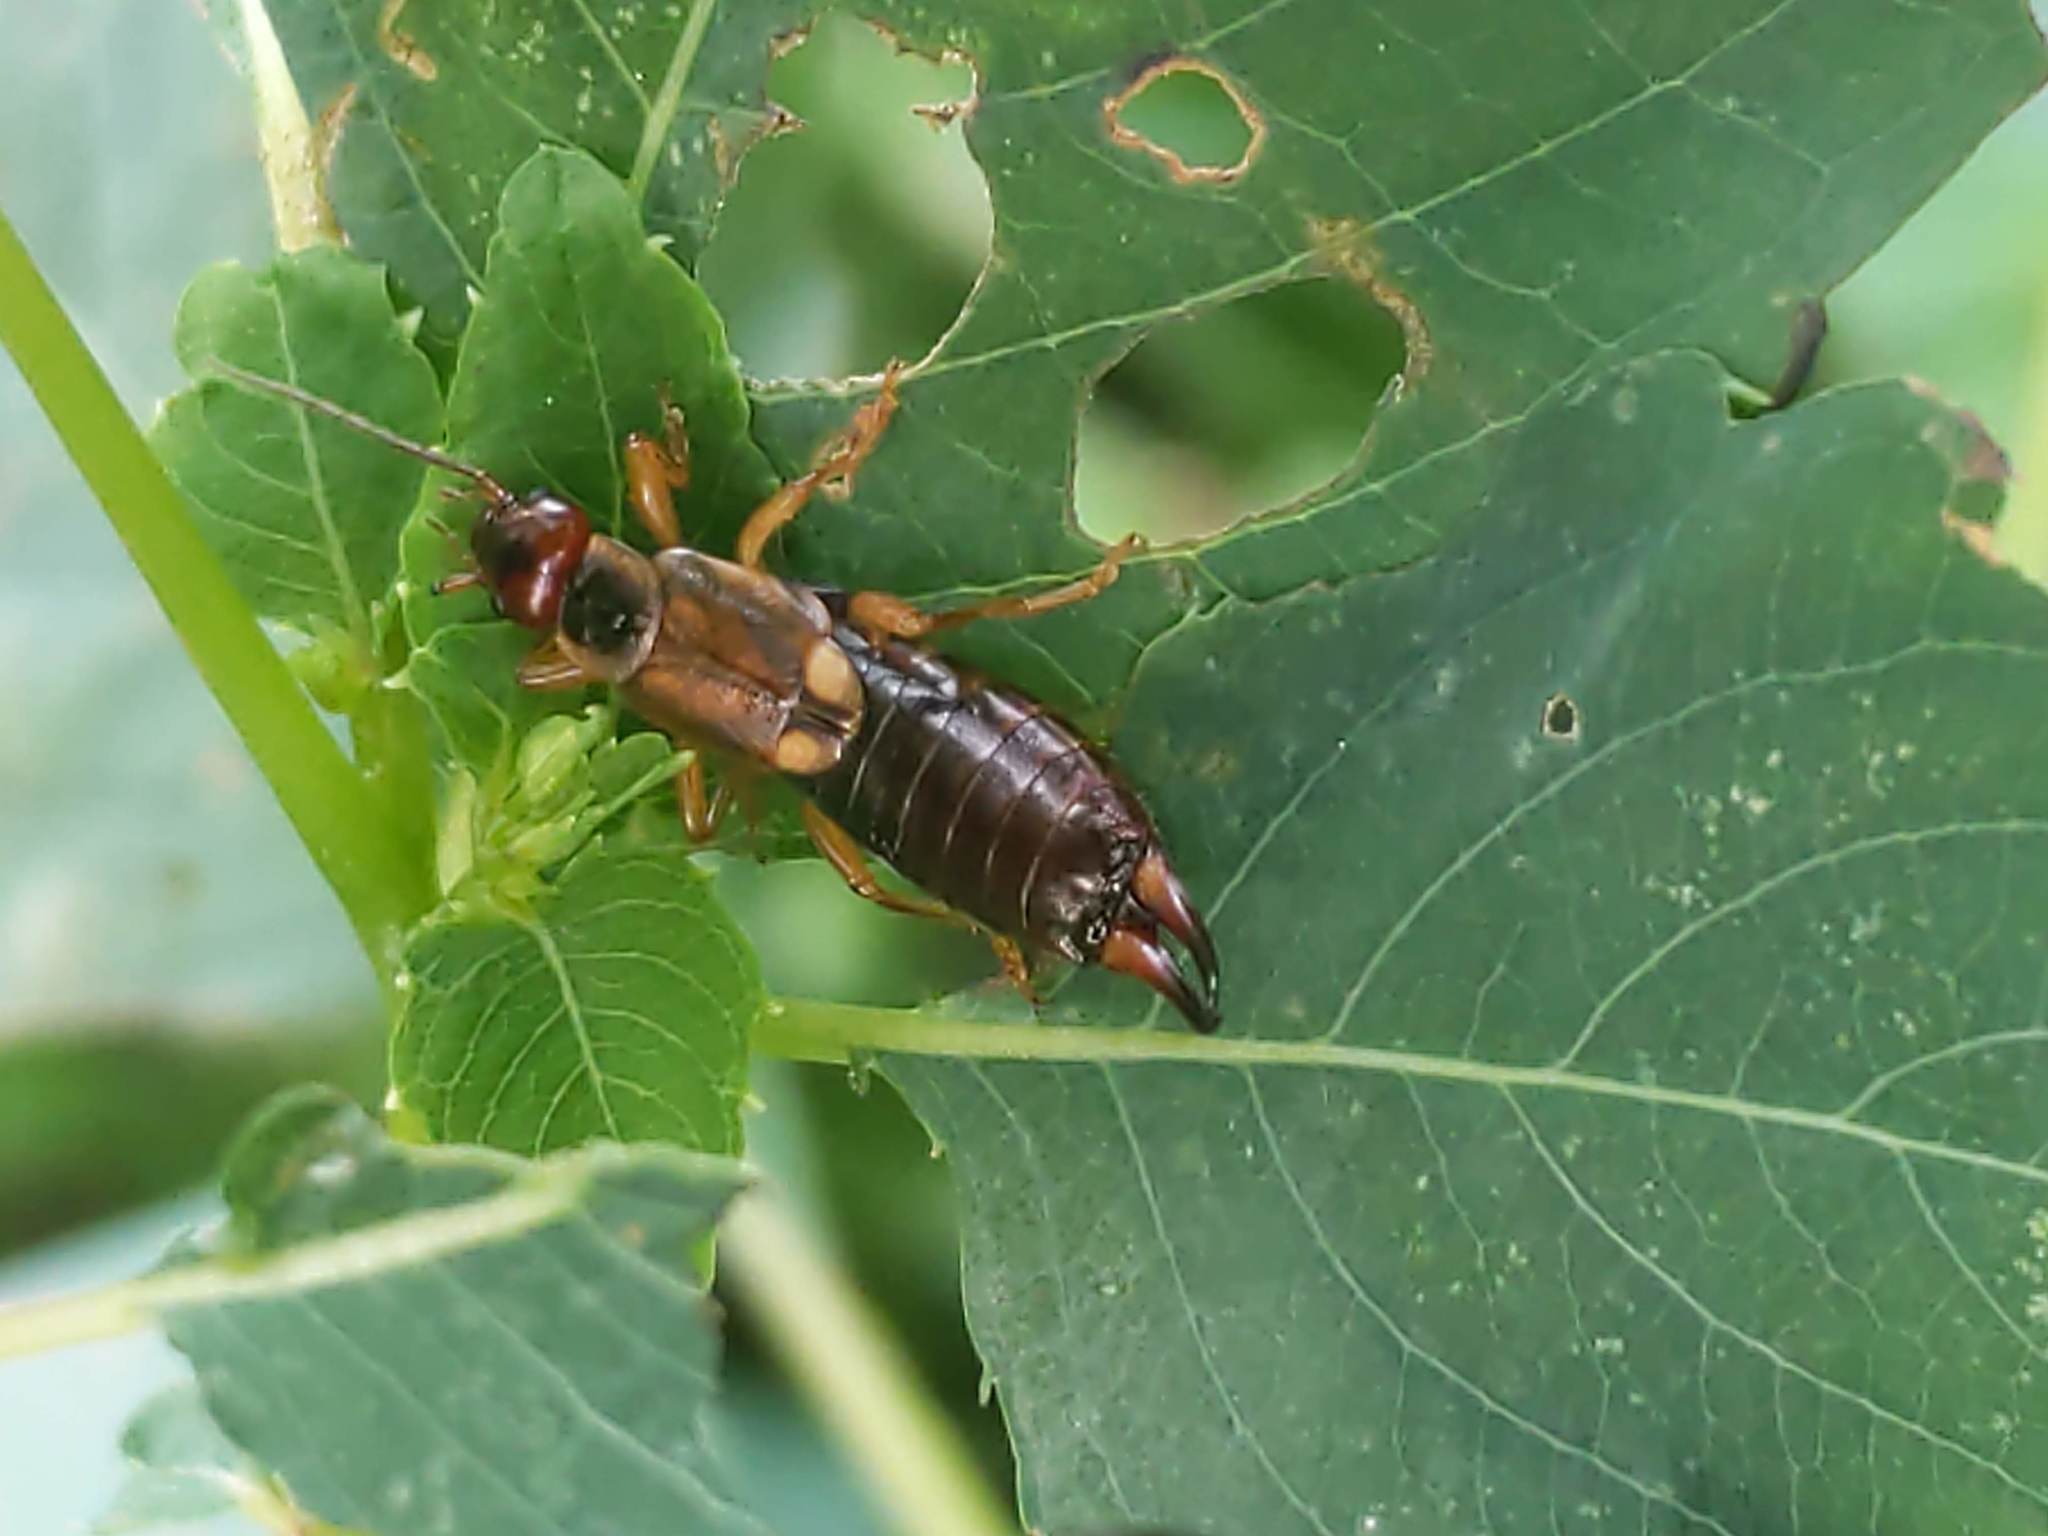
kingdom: Animalia
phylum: Arthropoda
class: Insecta
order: Dermaptera
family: Forficulidae
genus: Forficula
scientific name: Forficula
